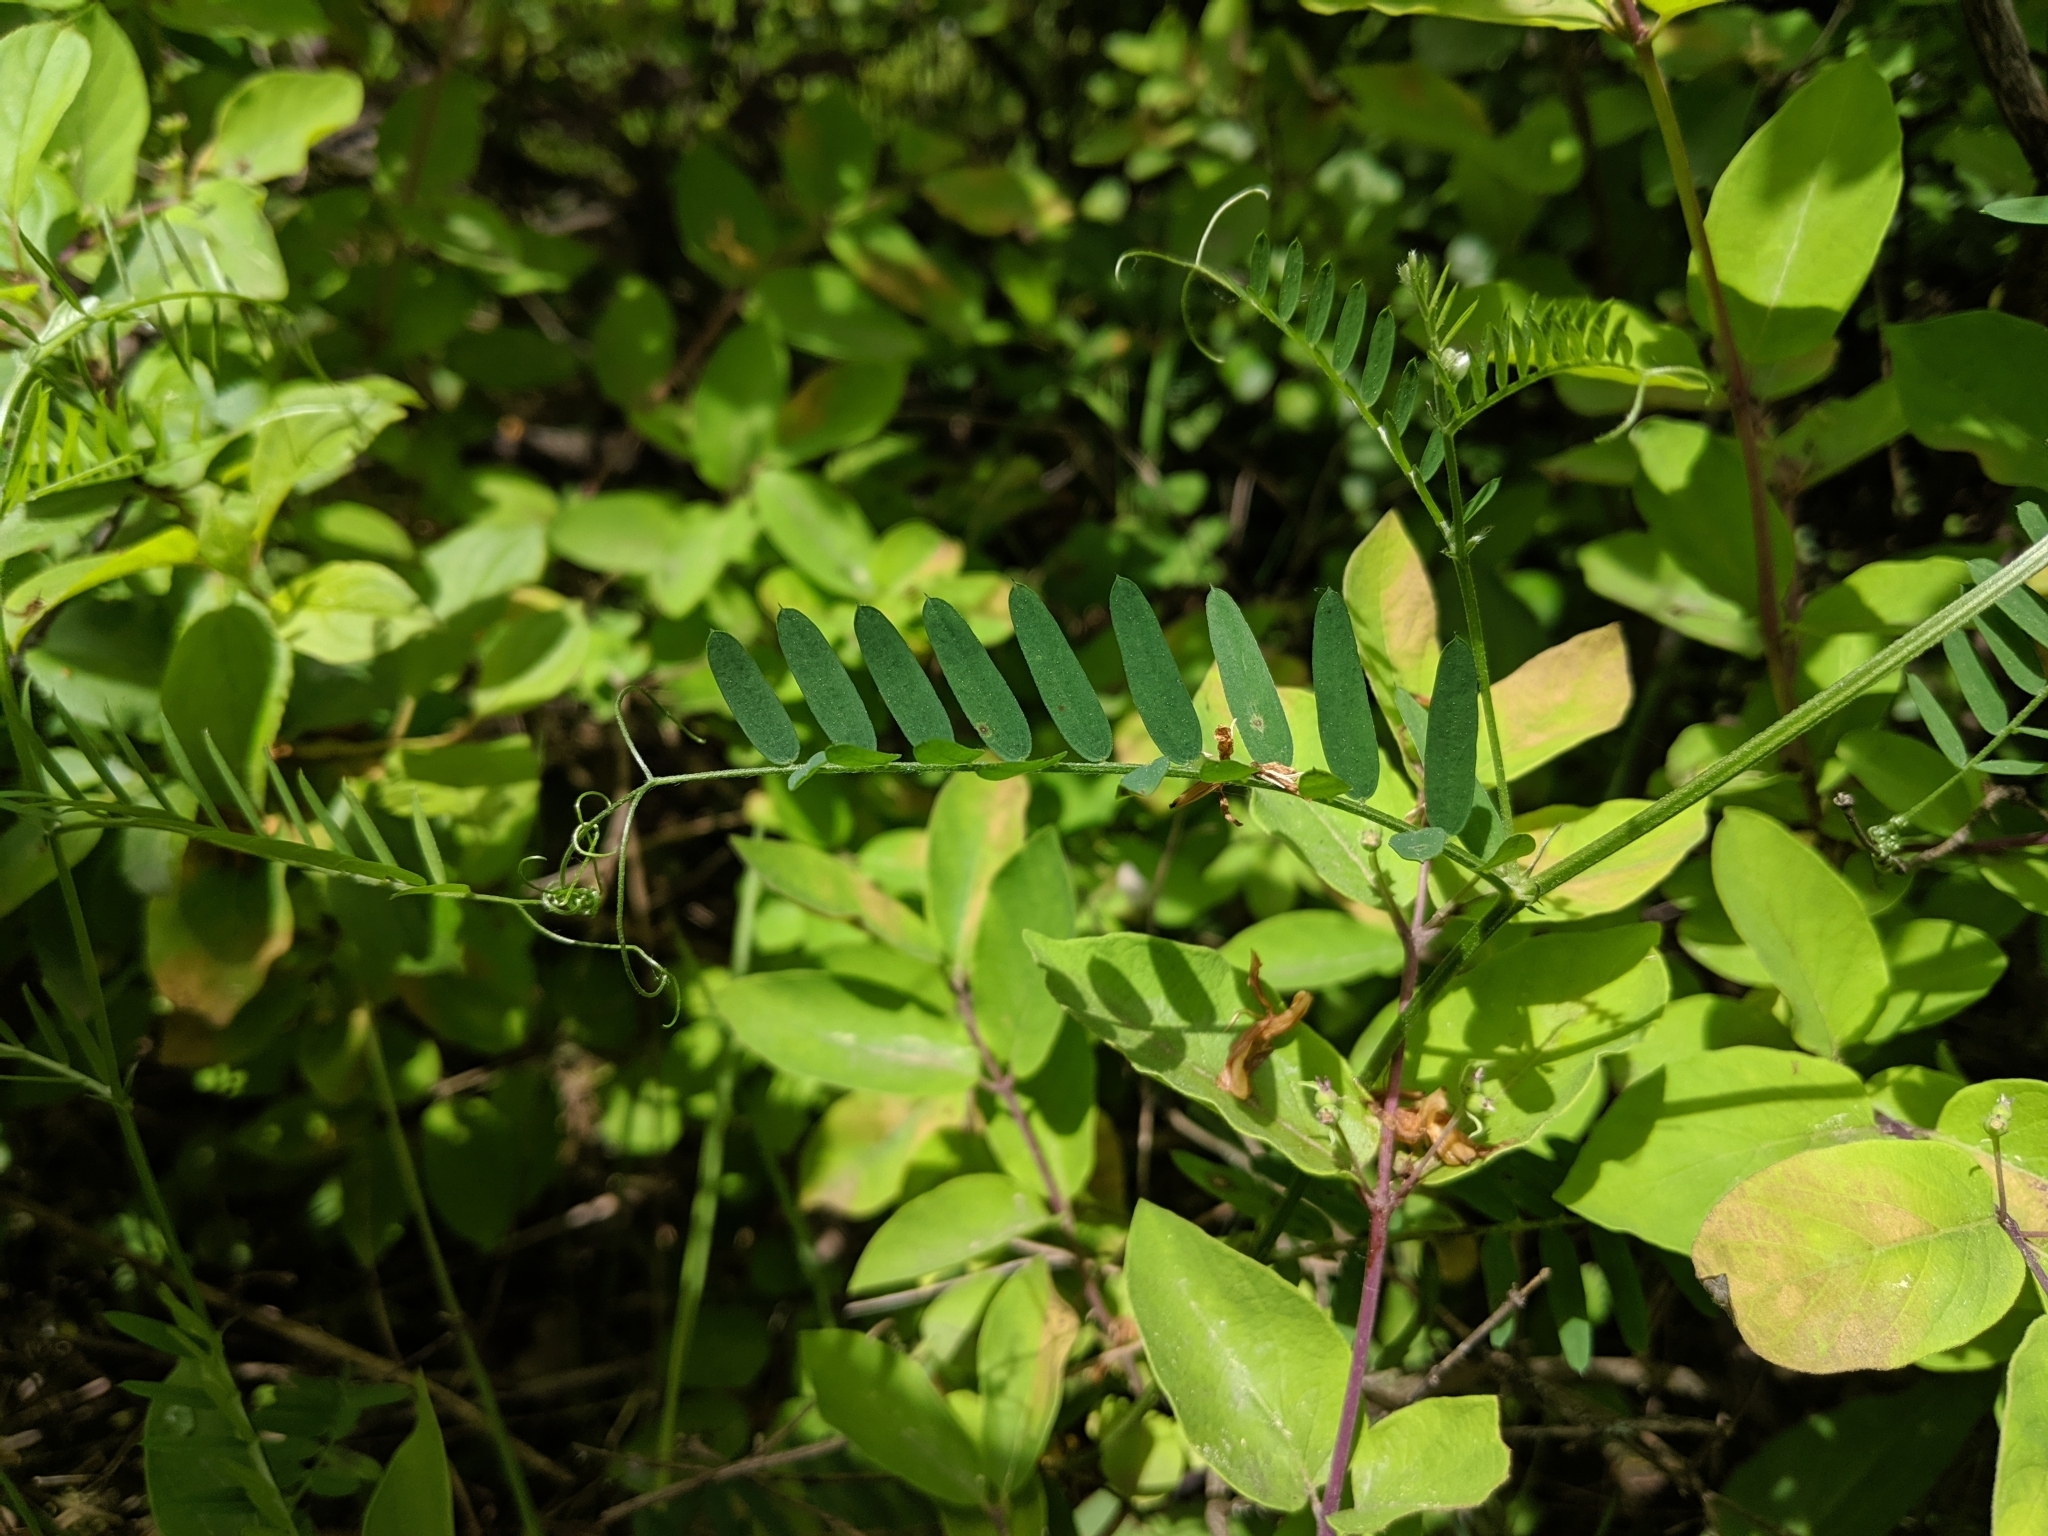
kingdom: Plantae
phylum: Tracheophyta
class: Magnoliopsida
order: Fabales
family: Fabaceae
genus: Vicia
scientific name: Vicia cracca
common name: Bird vetch
